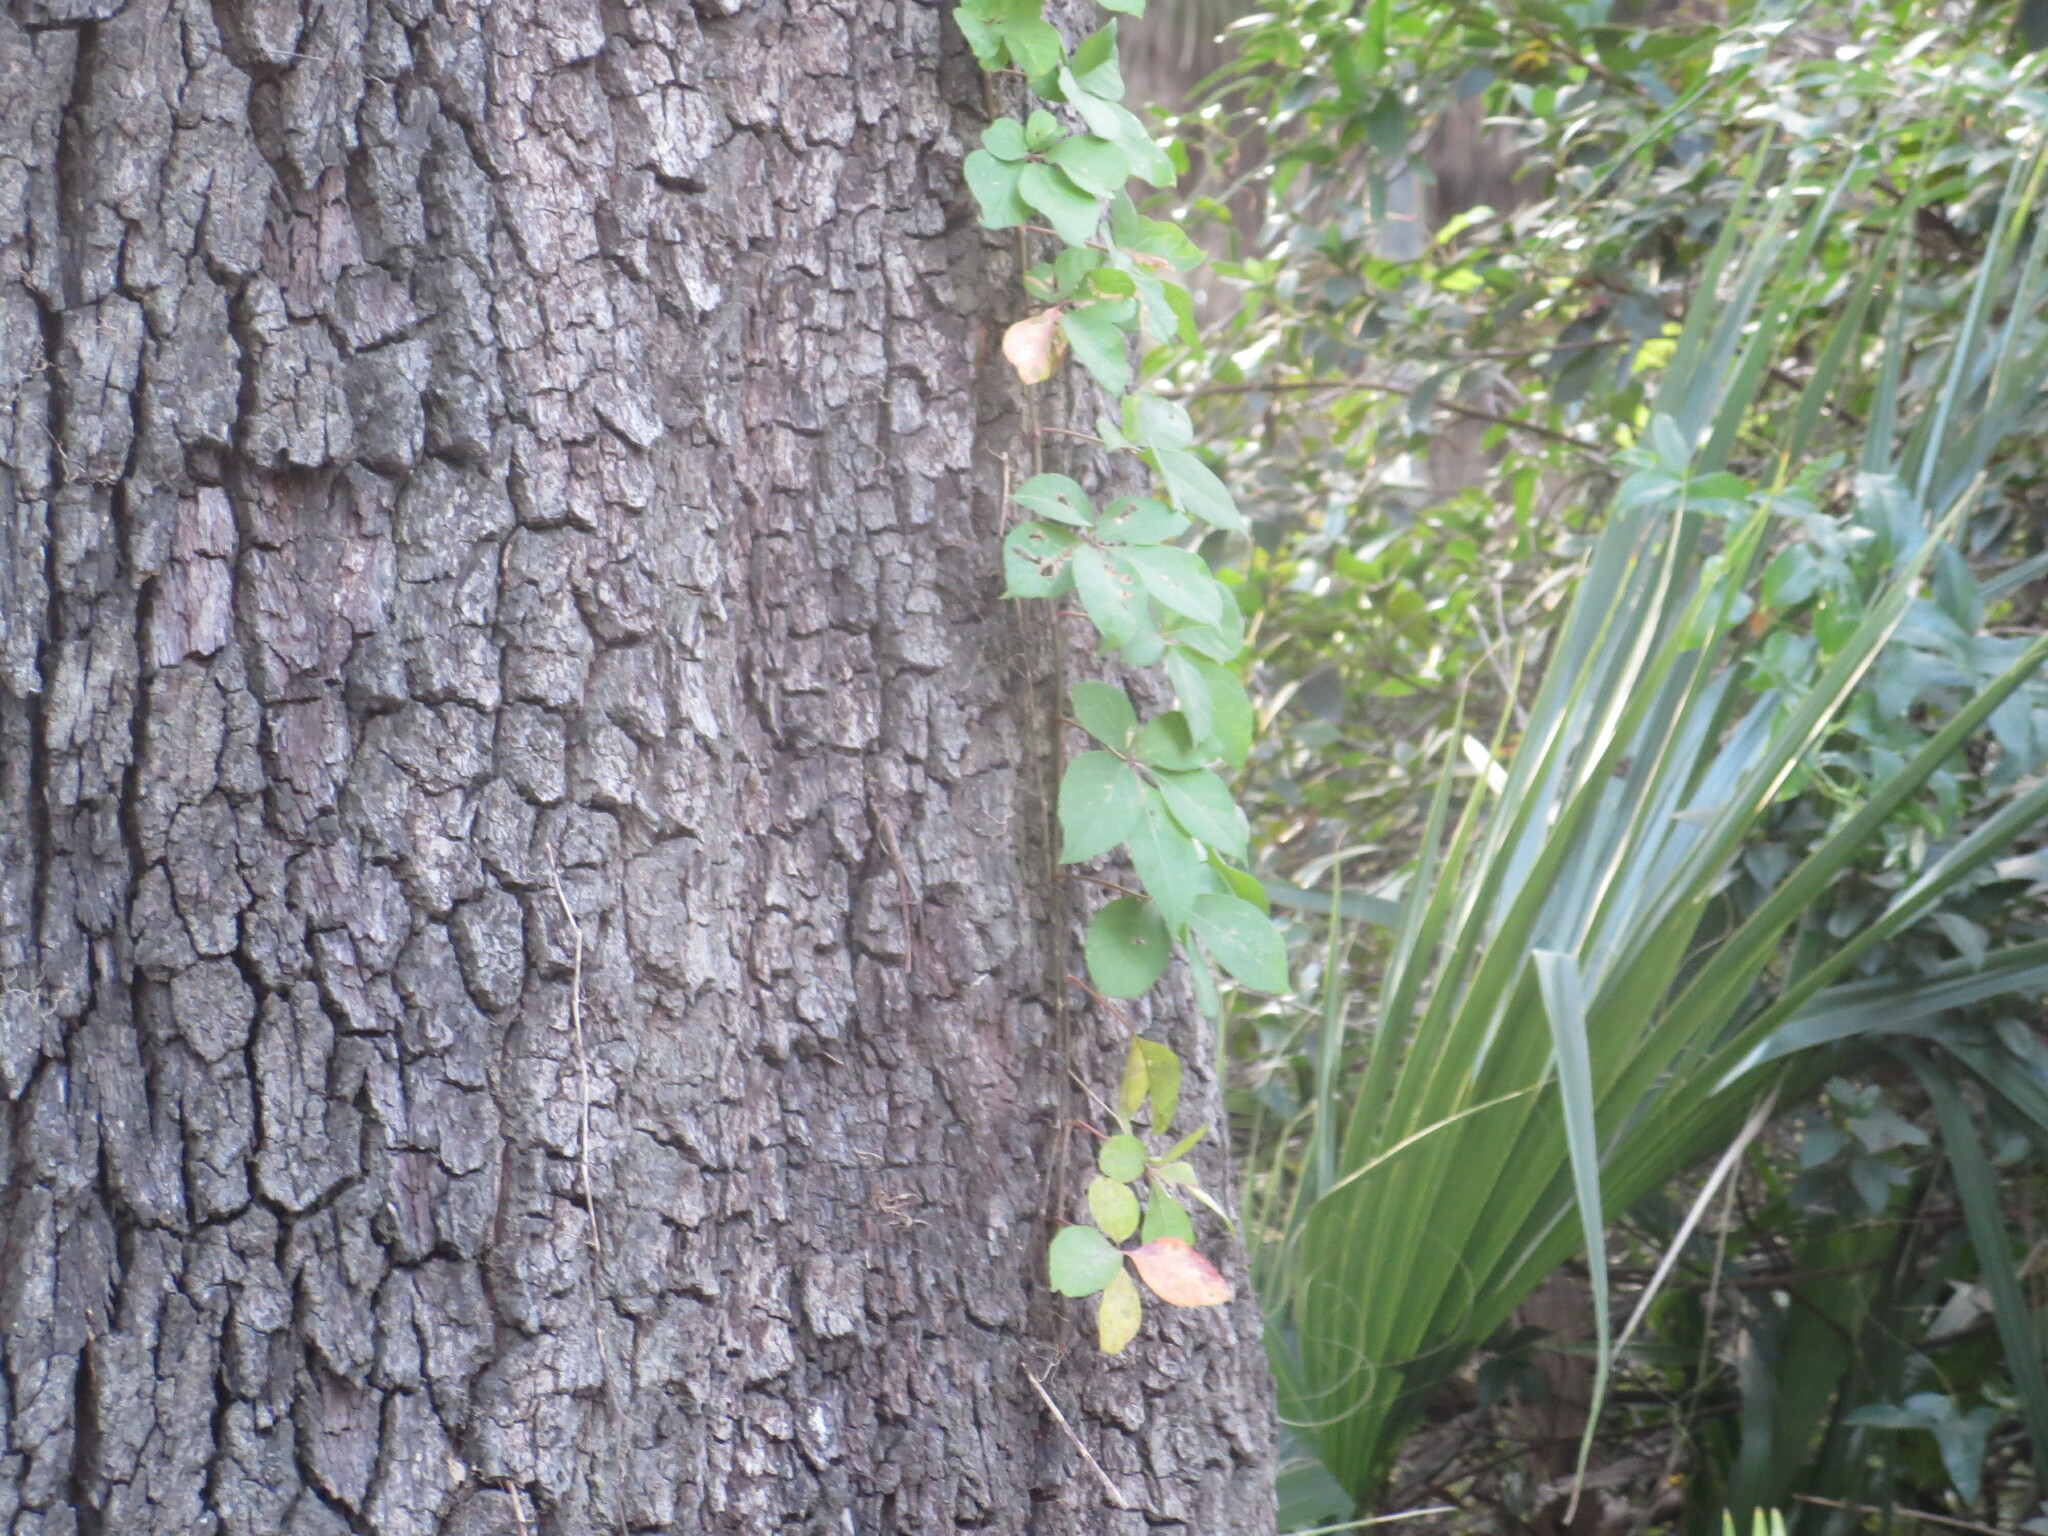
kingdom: Plantae
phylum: Tracheophyta
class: Magnoliopsida
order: Vitales
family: Vitaceae
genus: Parthenocissus
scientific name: Parthenocissus quinquefolia
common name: Virginia-creeper
